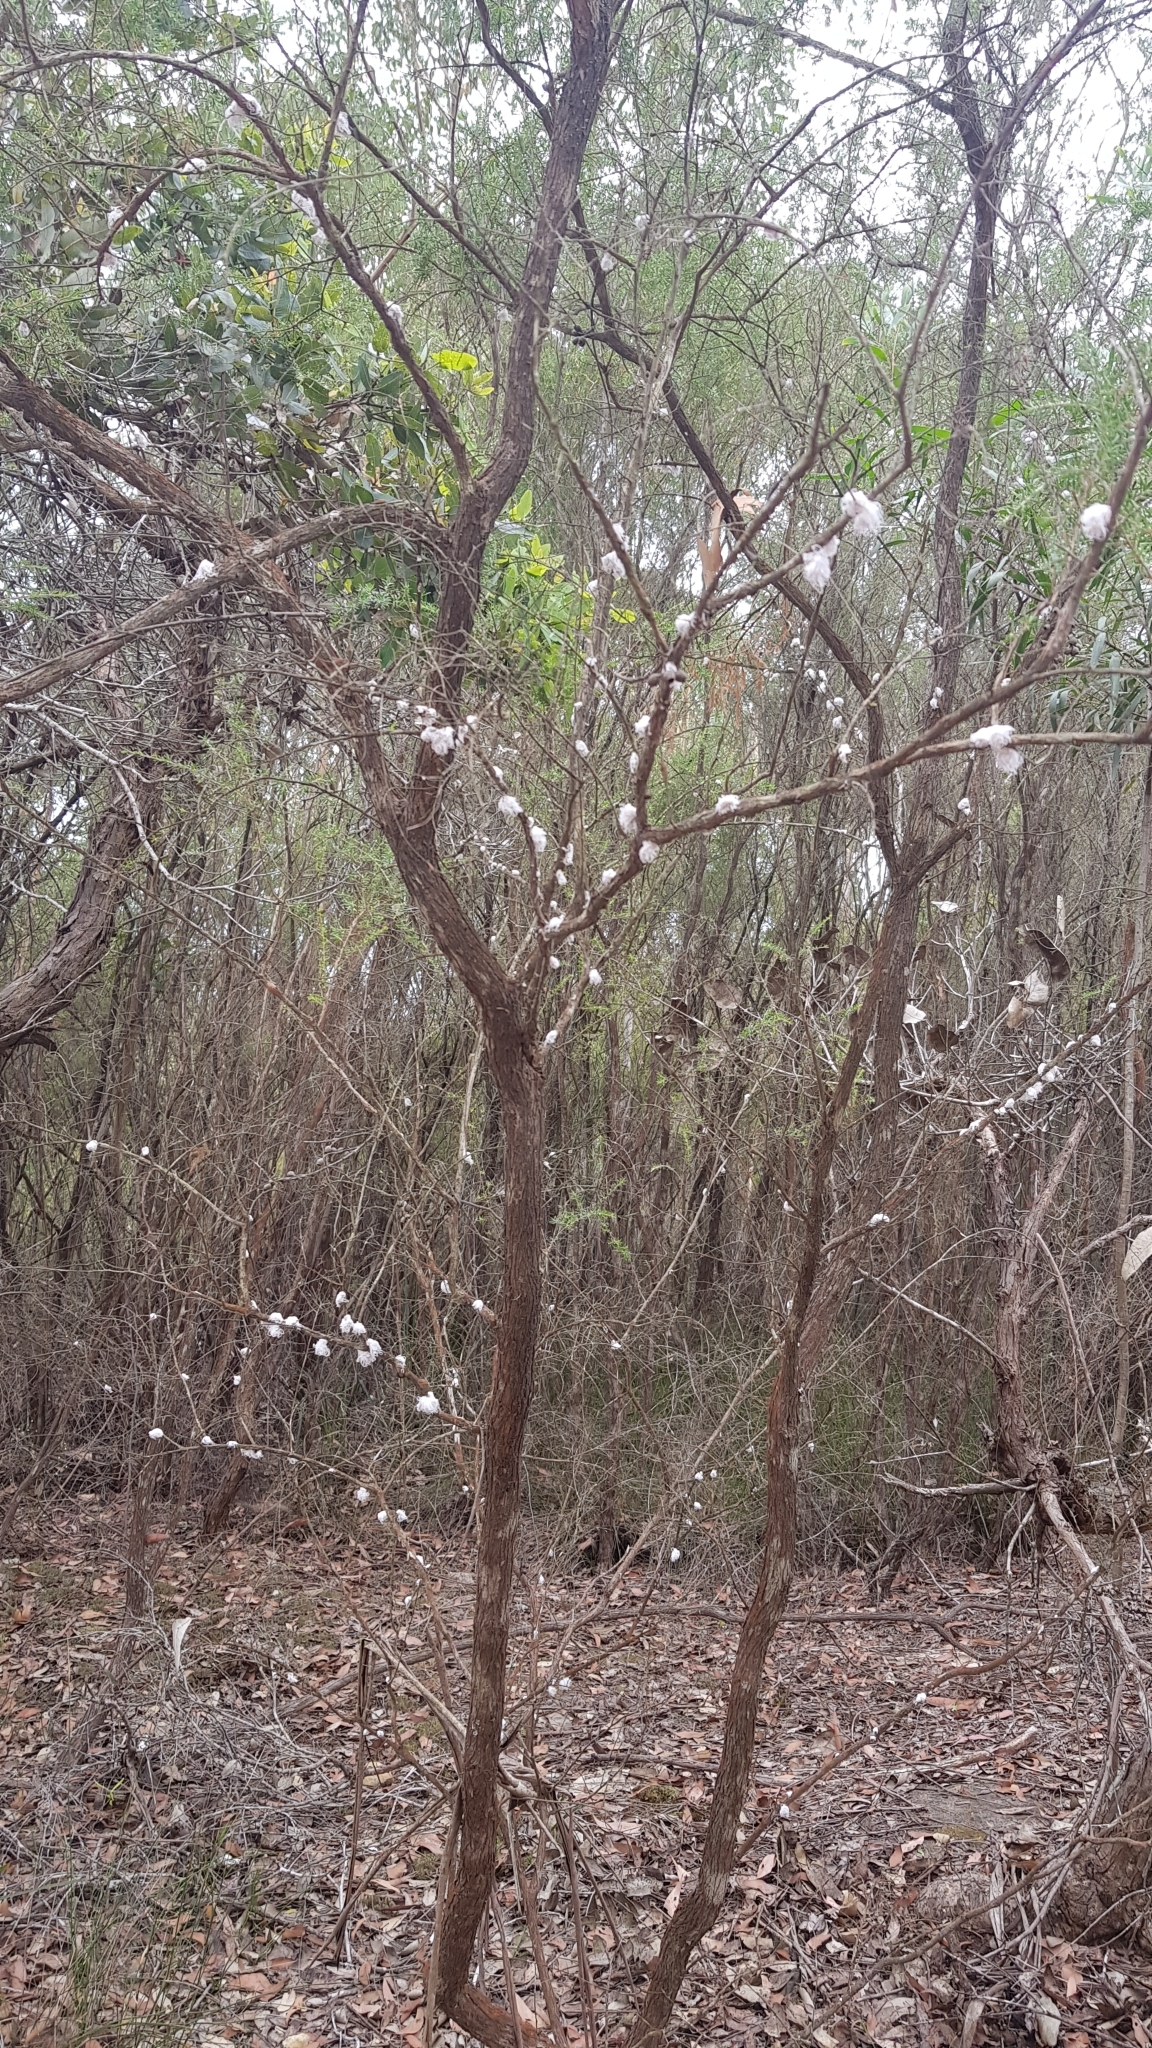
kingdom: Animalia
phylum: Arthropoda
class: Insecta
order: Hemiptera
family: Asterolecaniidae
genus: Callococcus
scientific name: Callococcus
